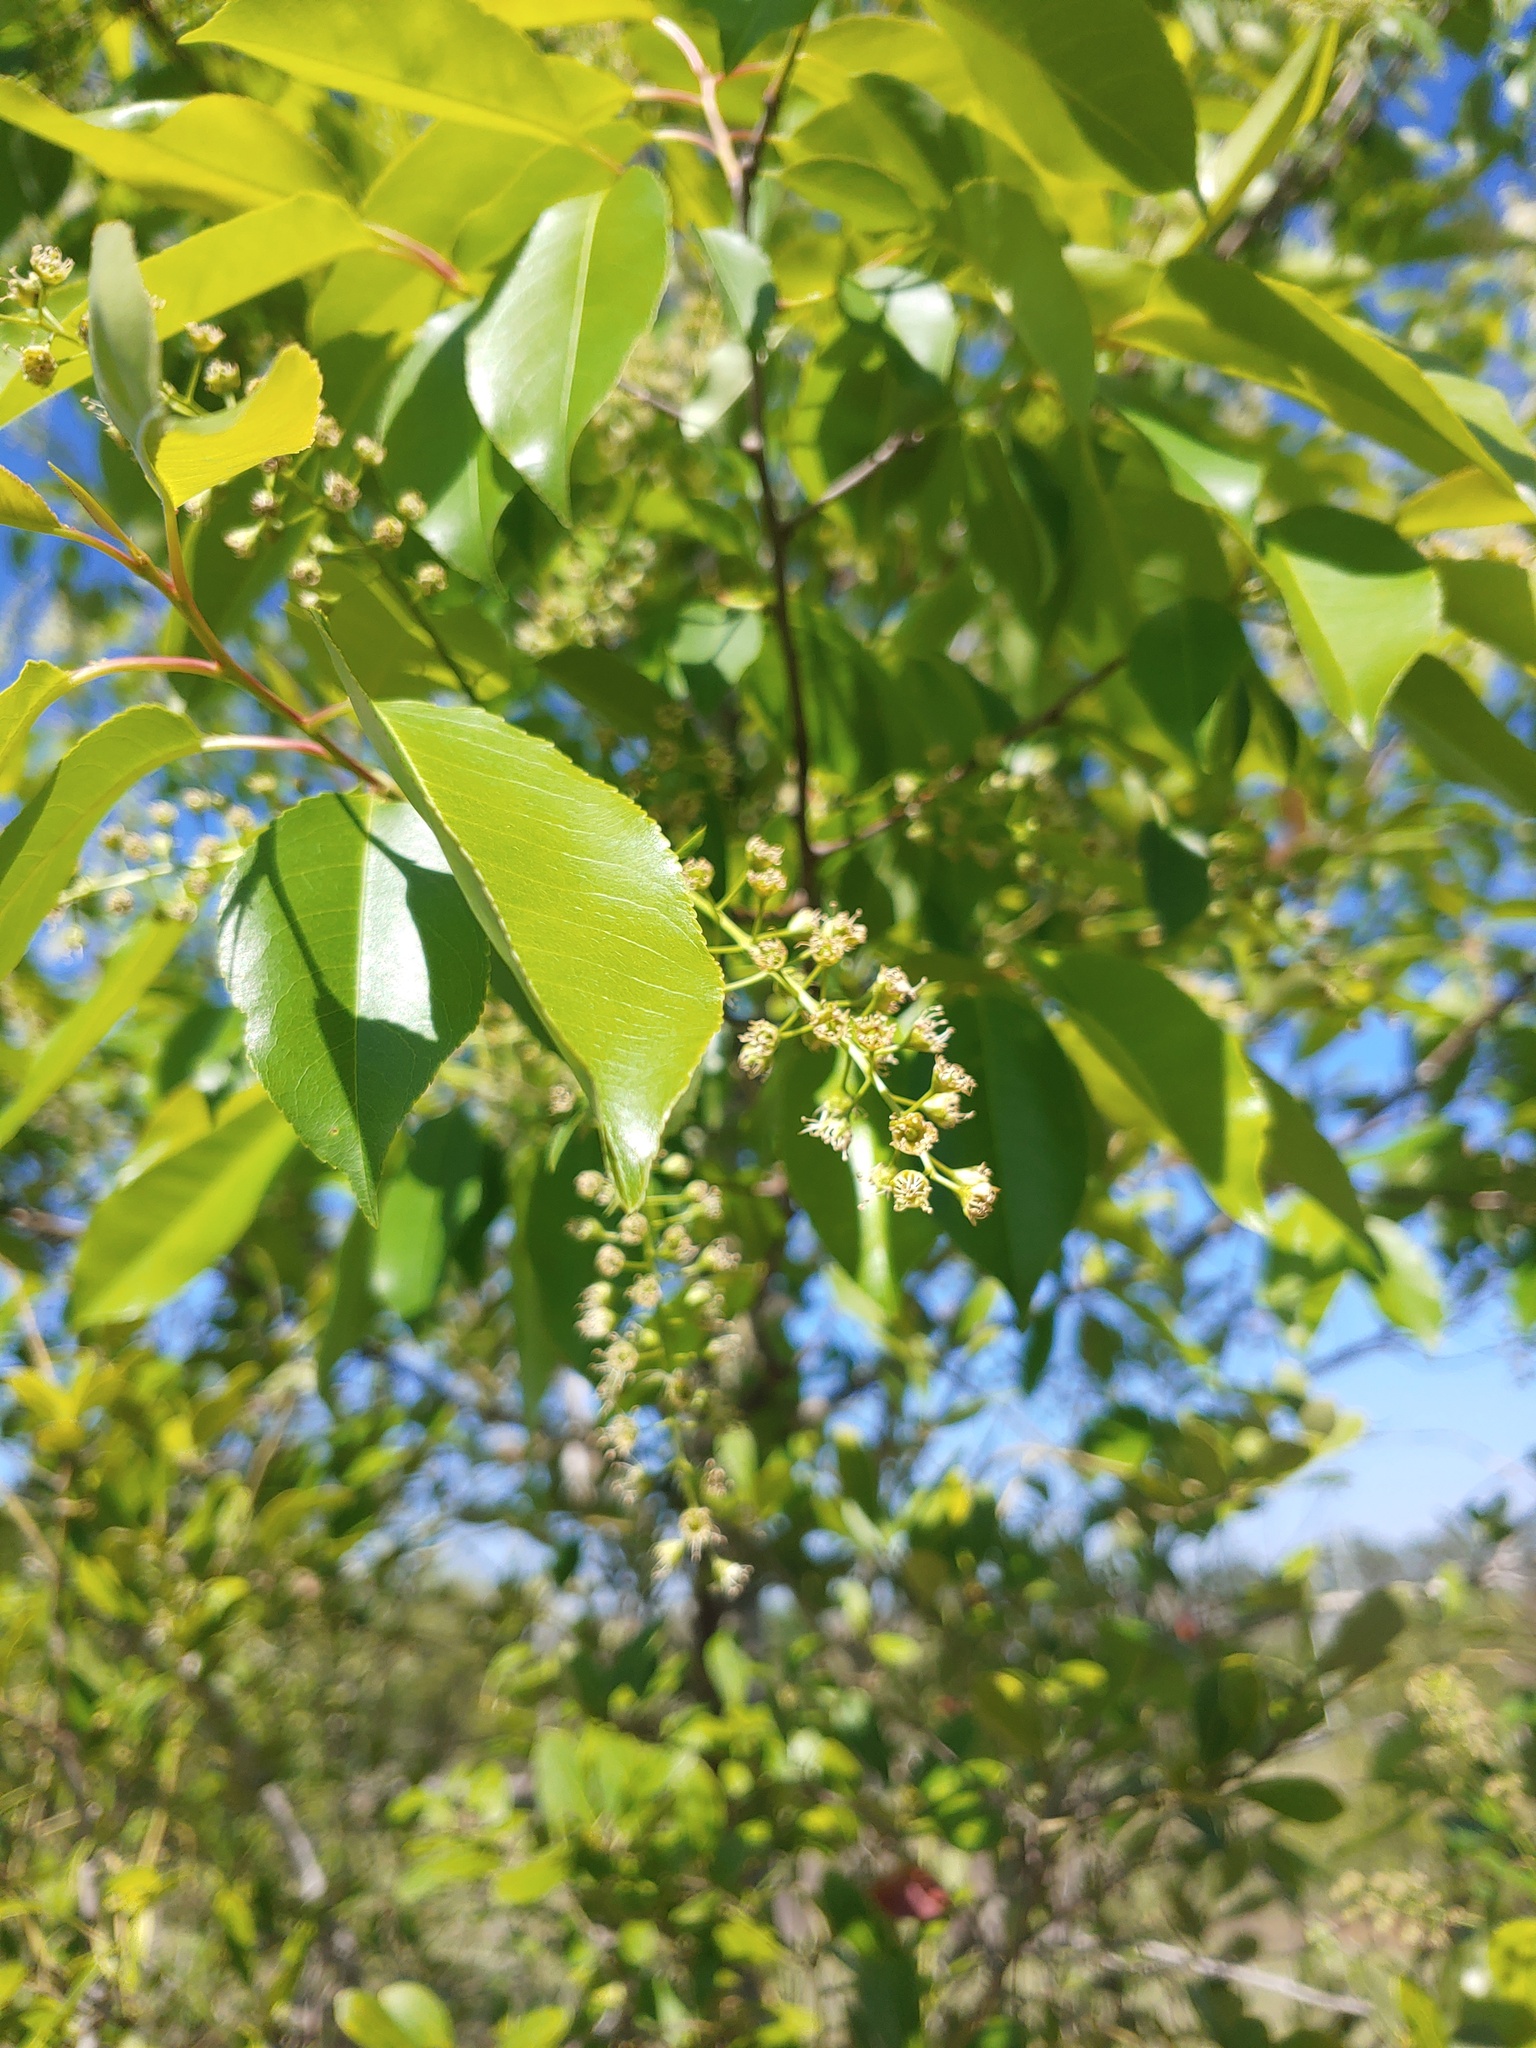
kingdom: Plantae
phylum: Tracheophyta
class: Magnoliopsida
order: Rosales
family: Rosaceae
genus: Prunus
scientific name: Prunus serotina
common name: Black cherry
